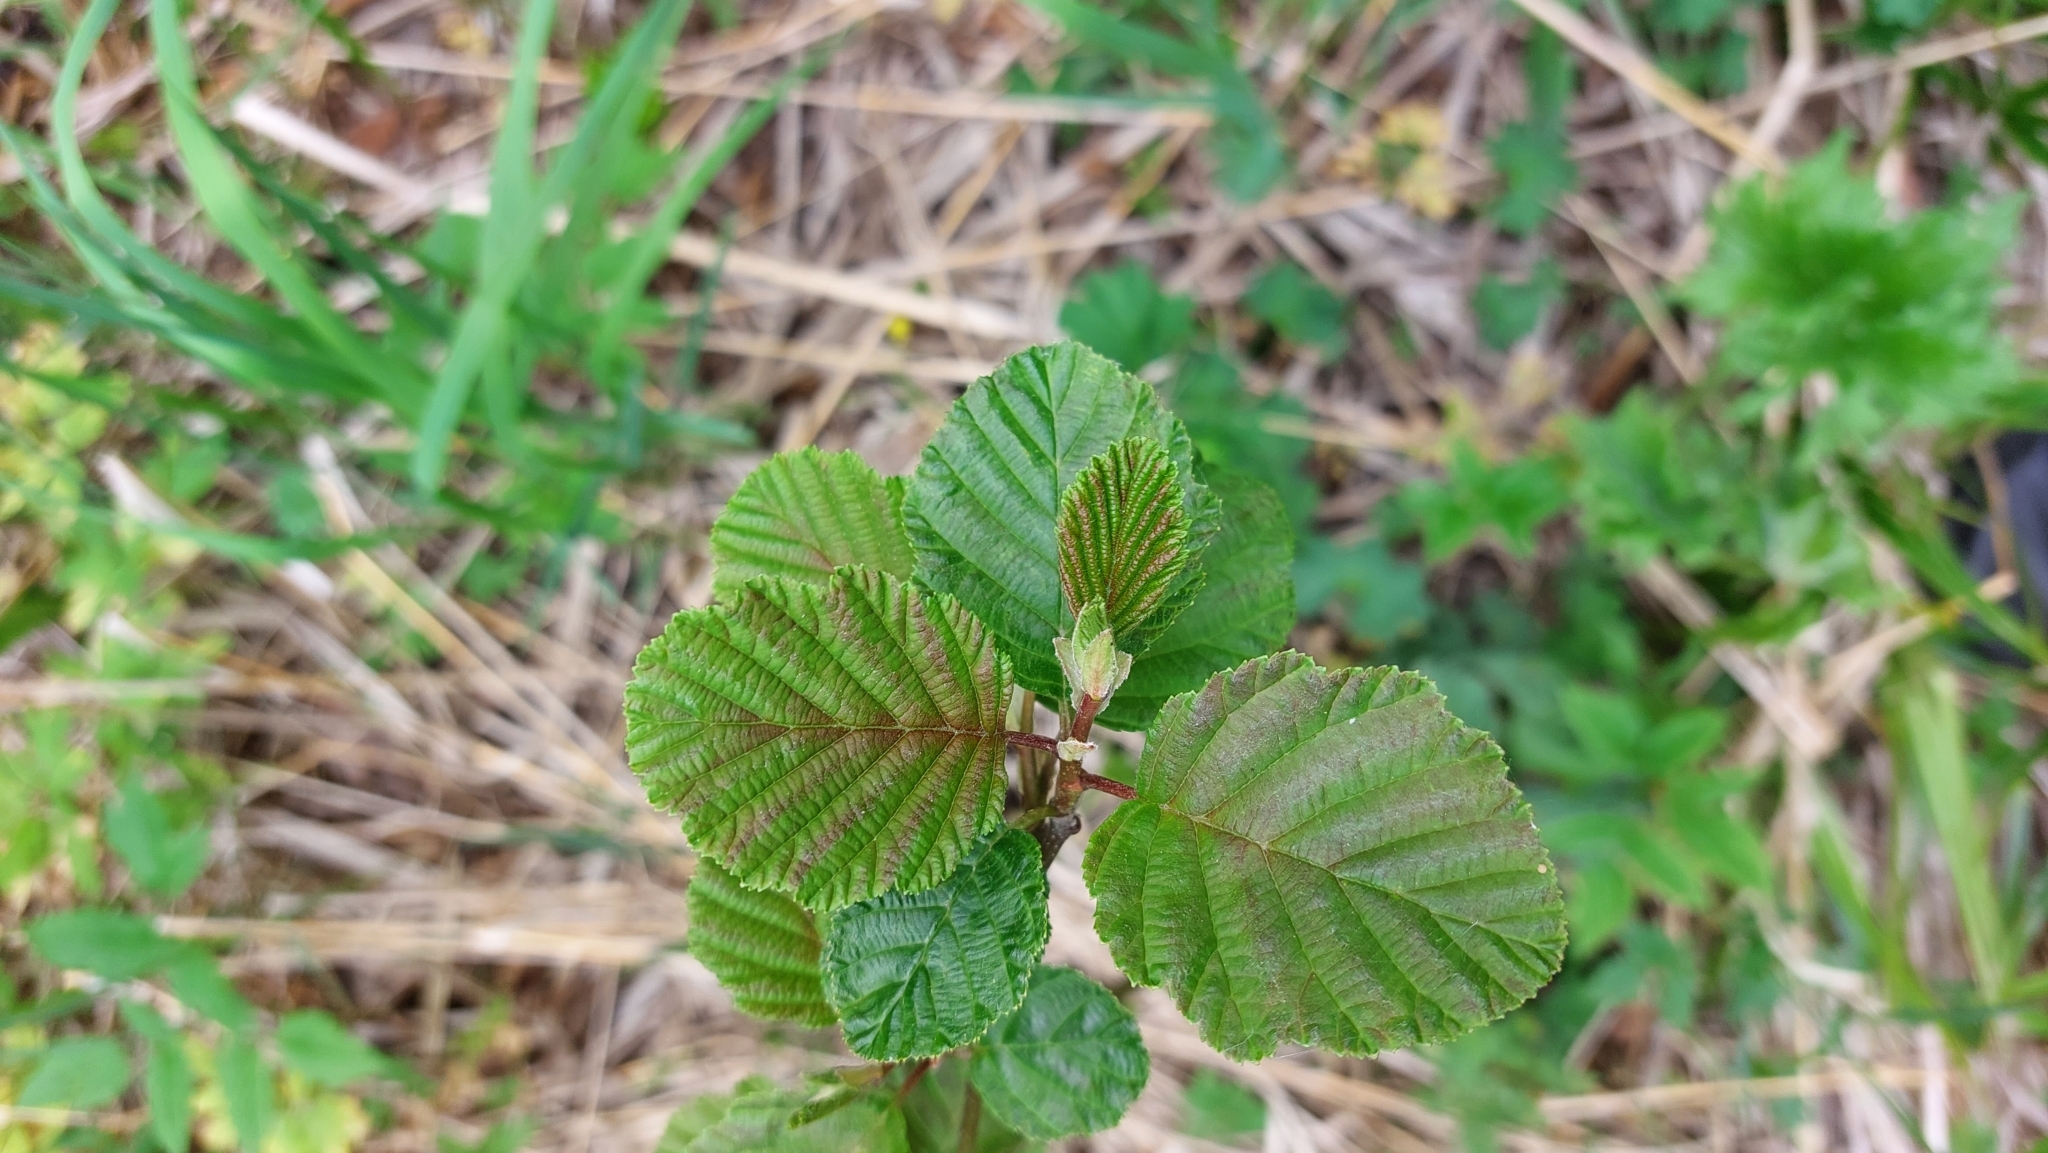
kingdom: Plantae
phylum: Tracheophyta
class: Magnoliopsida
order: Fagales
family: Betulaceae
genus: Alnus
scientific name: Alnus glutinosa
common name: Black alder
